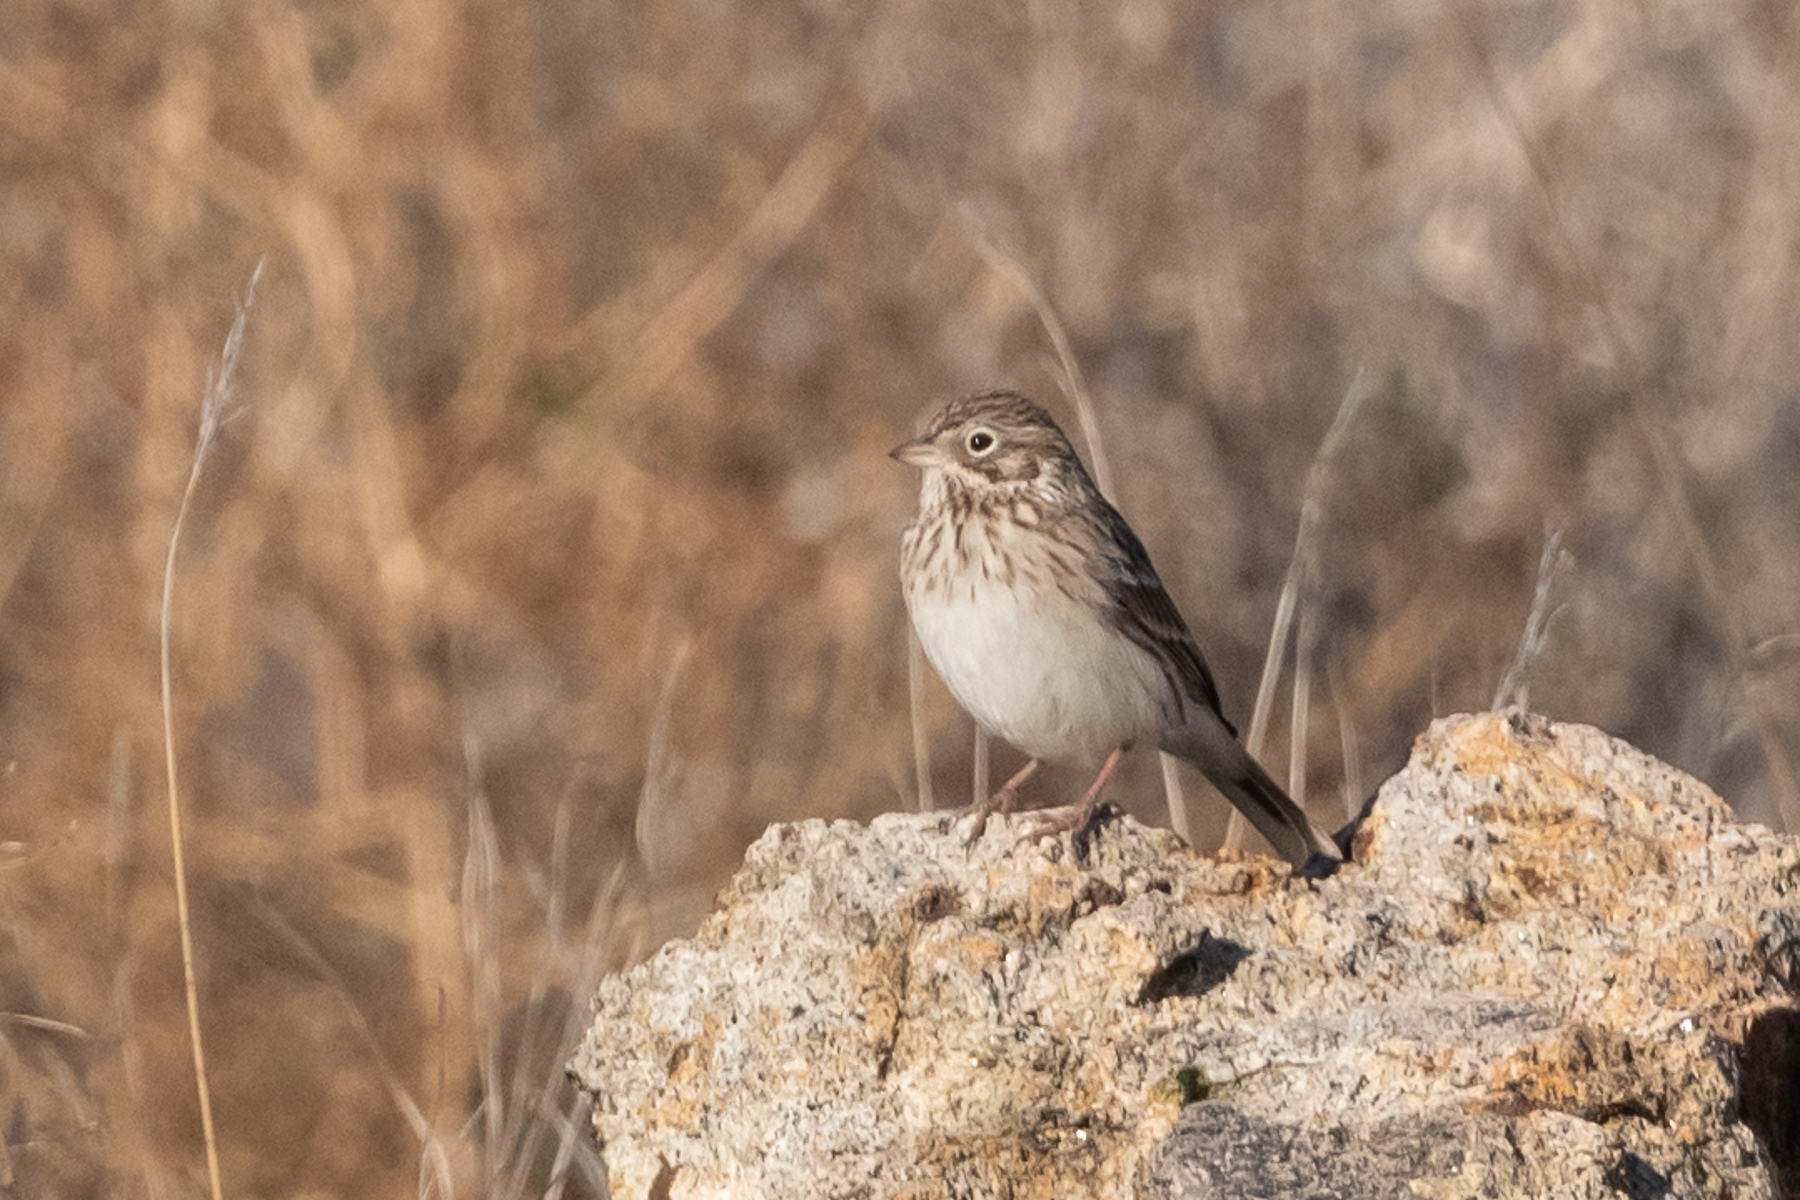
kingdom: Animalia
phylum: Chordata
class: Aves
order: Passeriformes
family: Passerellidae
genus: Pooecetes
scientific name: Pooecetes gramineus
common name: Vesper sparrow
